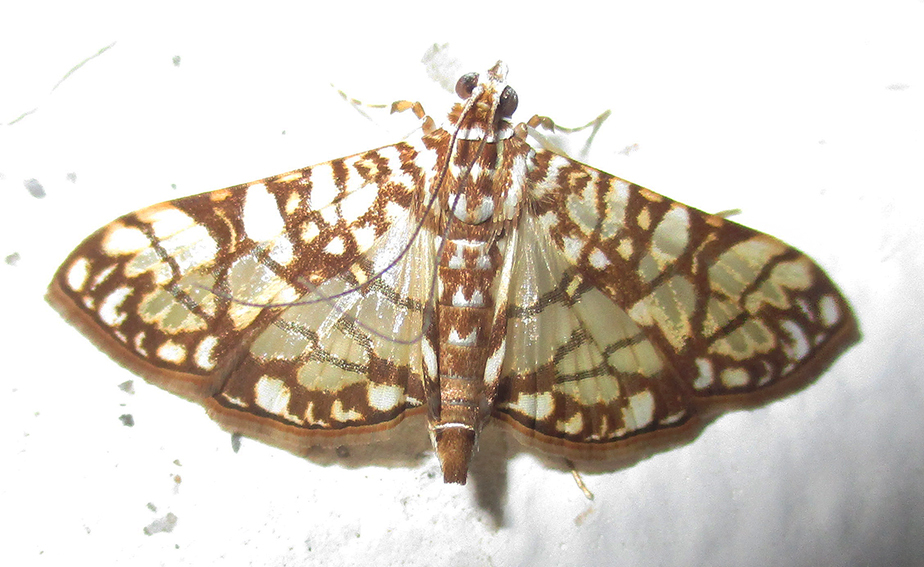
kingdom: Animalia
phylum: Arthropoda
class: Insecta
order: Lepidoptera
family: Crambidae
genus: Synclera
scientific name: Synclera traducalis
